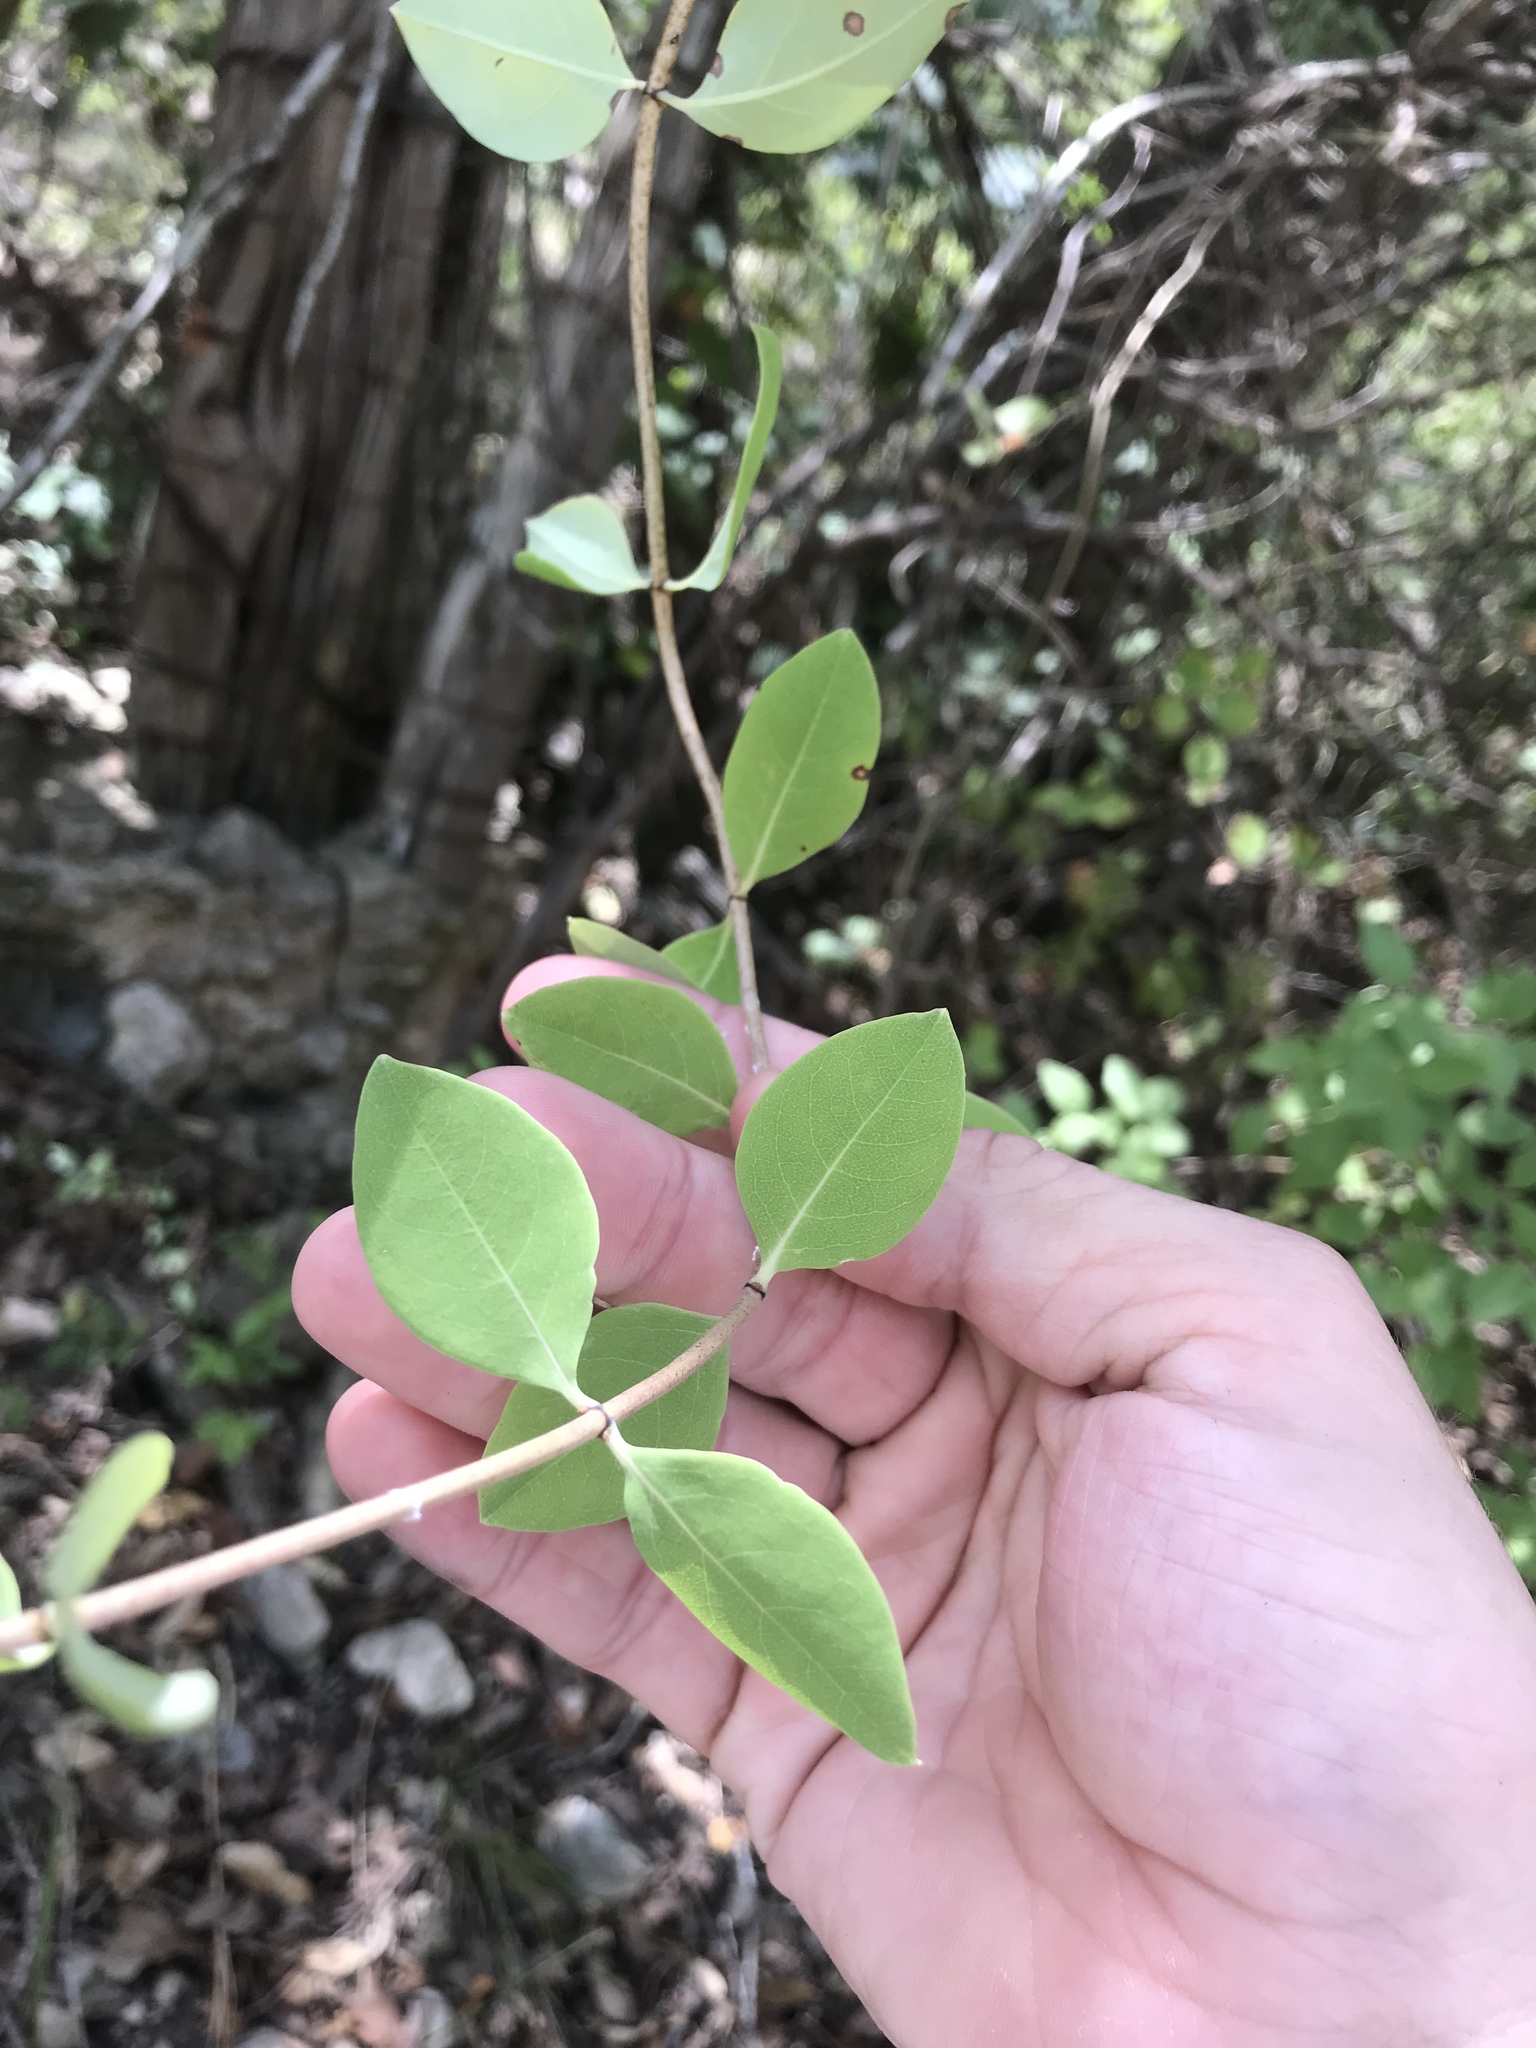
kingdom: Plantae
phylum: Tracheophyta
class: Magnoliopsida
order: Dipsacales
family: Caprifoliaceae
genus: Lonicera
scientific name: Lonicera albiflora
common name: White honeysuckle
